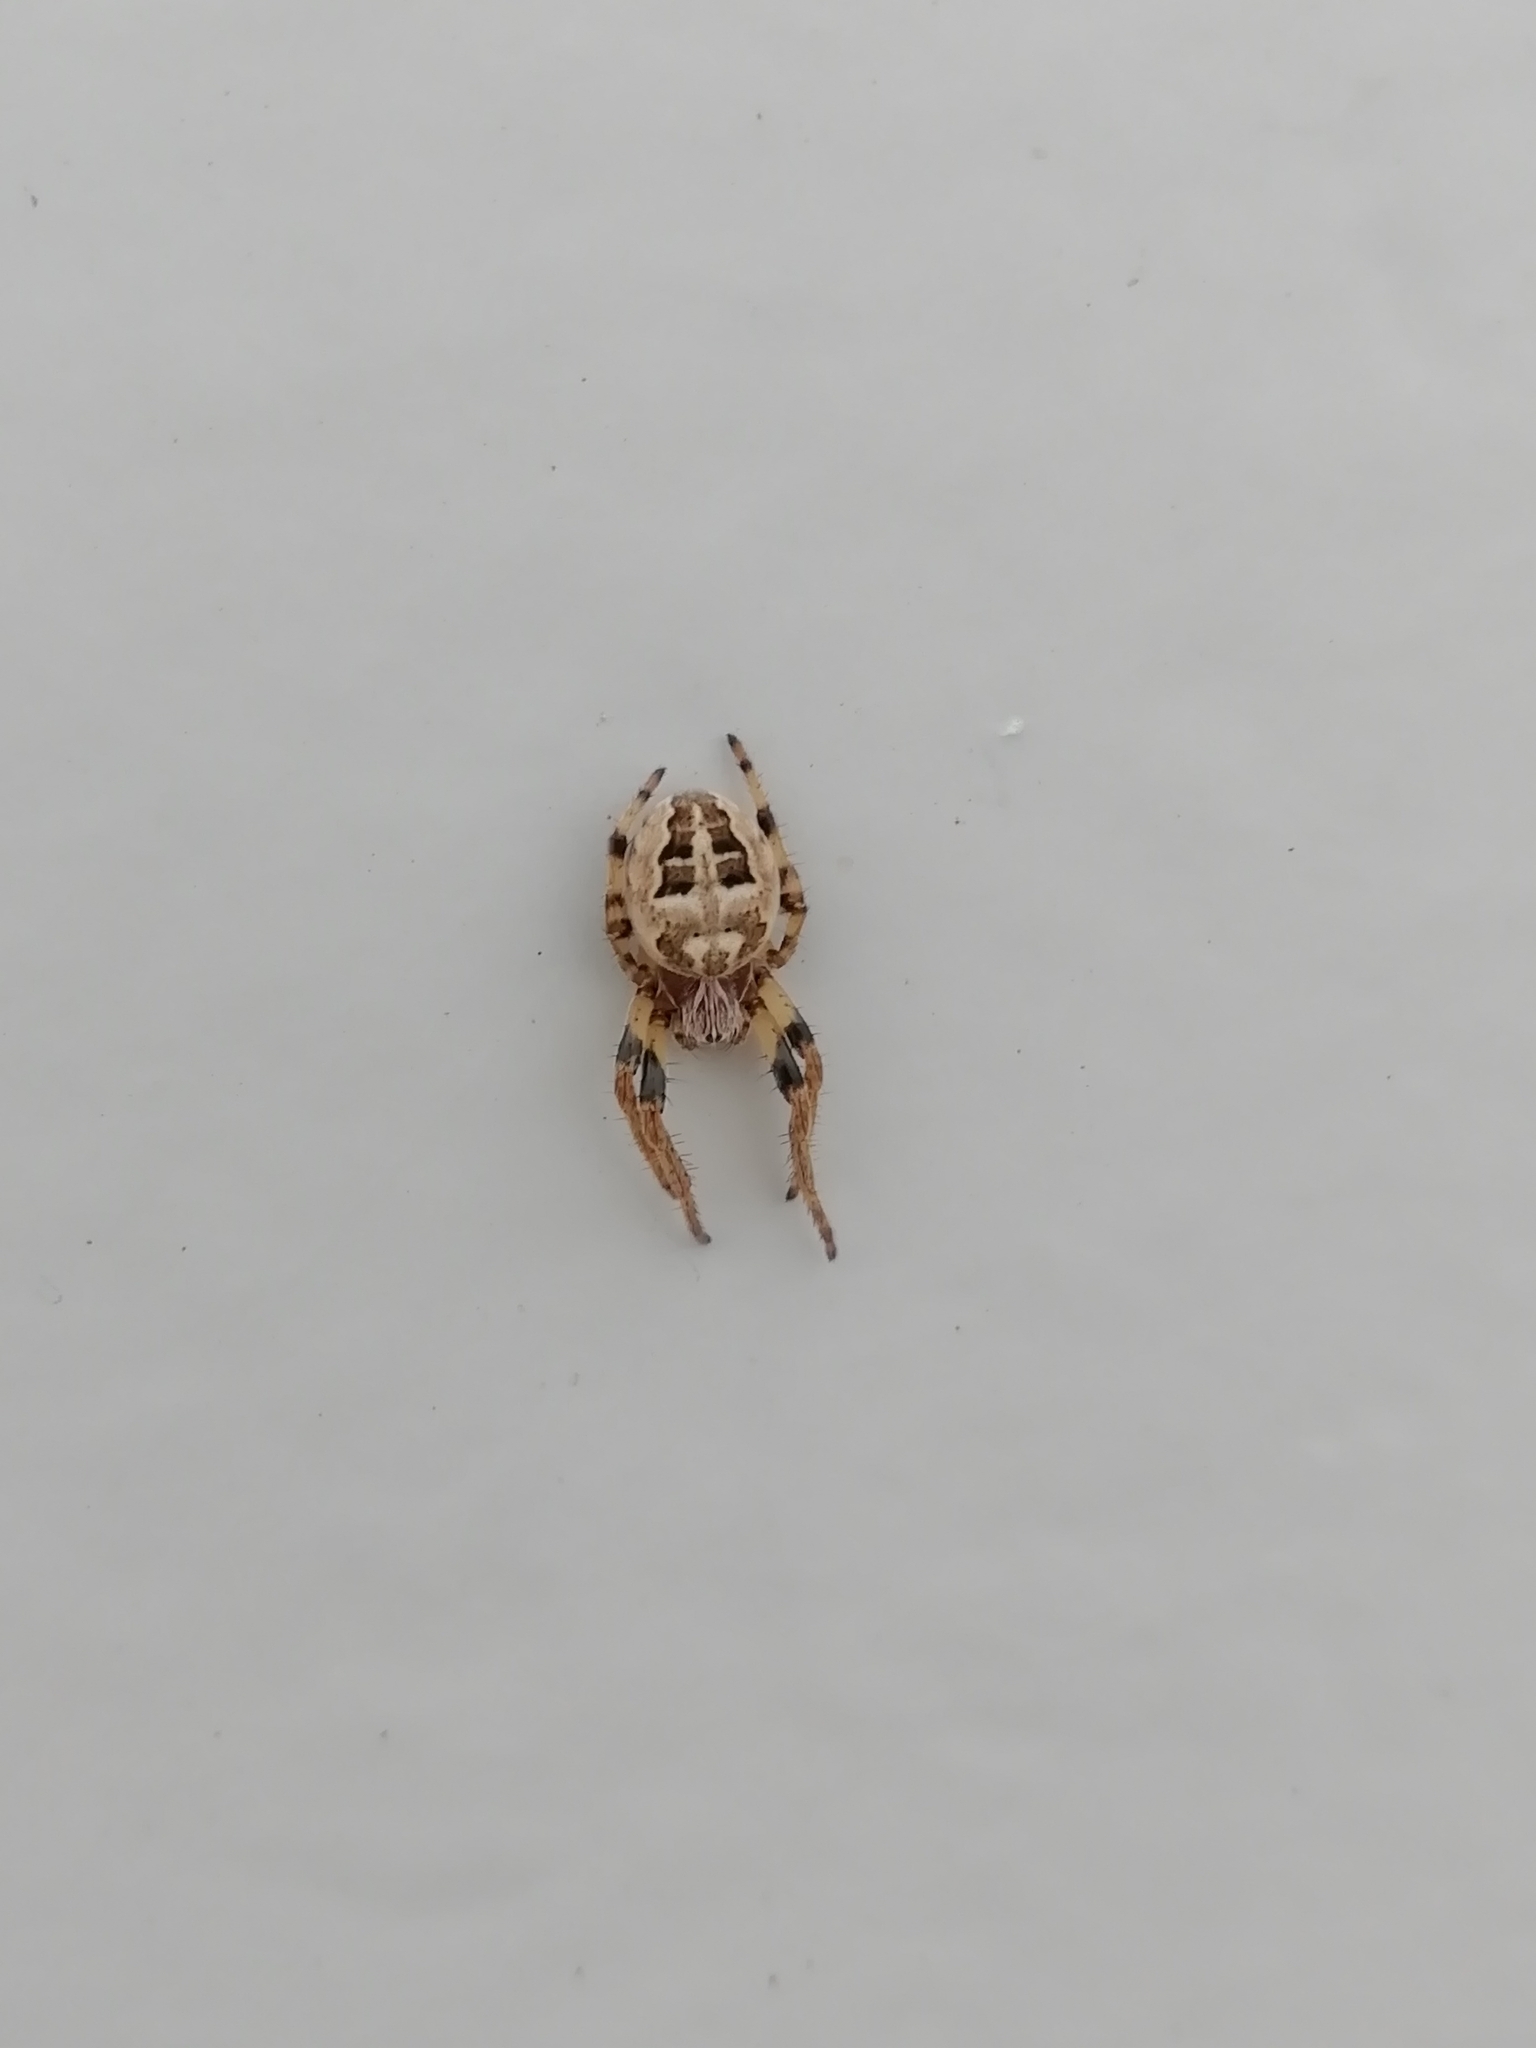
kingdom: Animalia
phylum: Arthropoda
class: Arachnida
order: Araneae
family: Araneidae
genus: Larinioides
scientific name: Larinioides cornutus
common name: Furrow orbweaver
